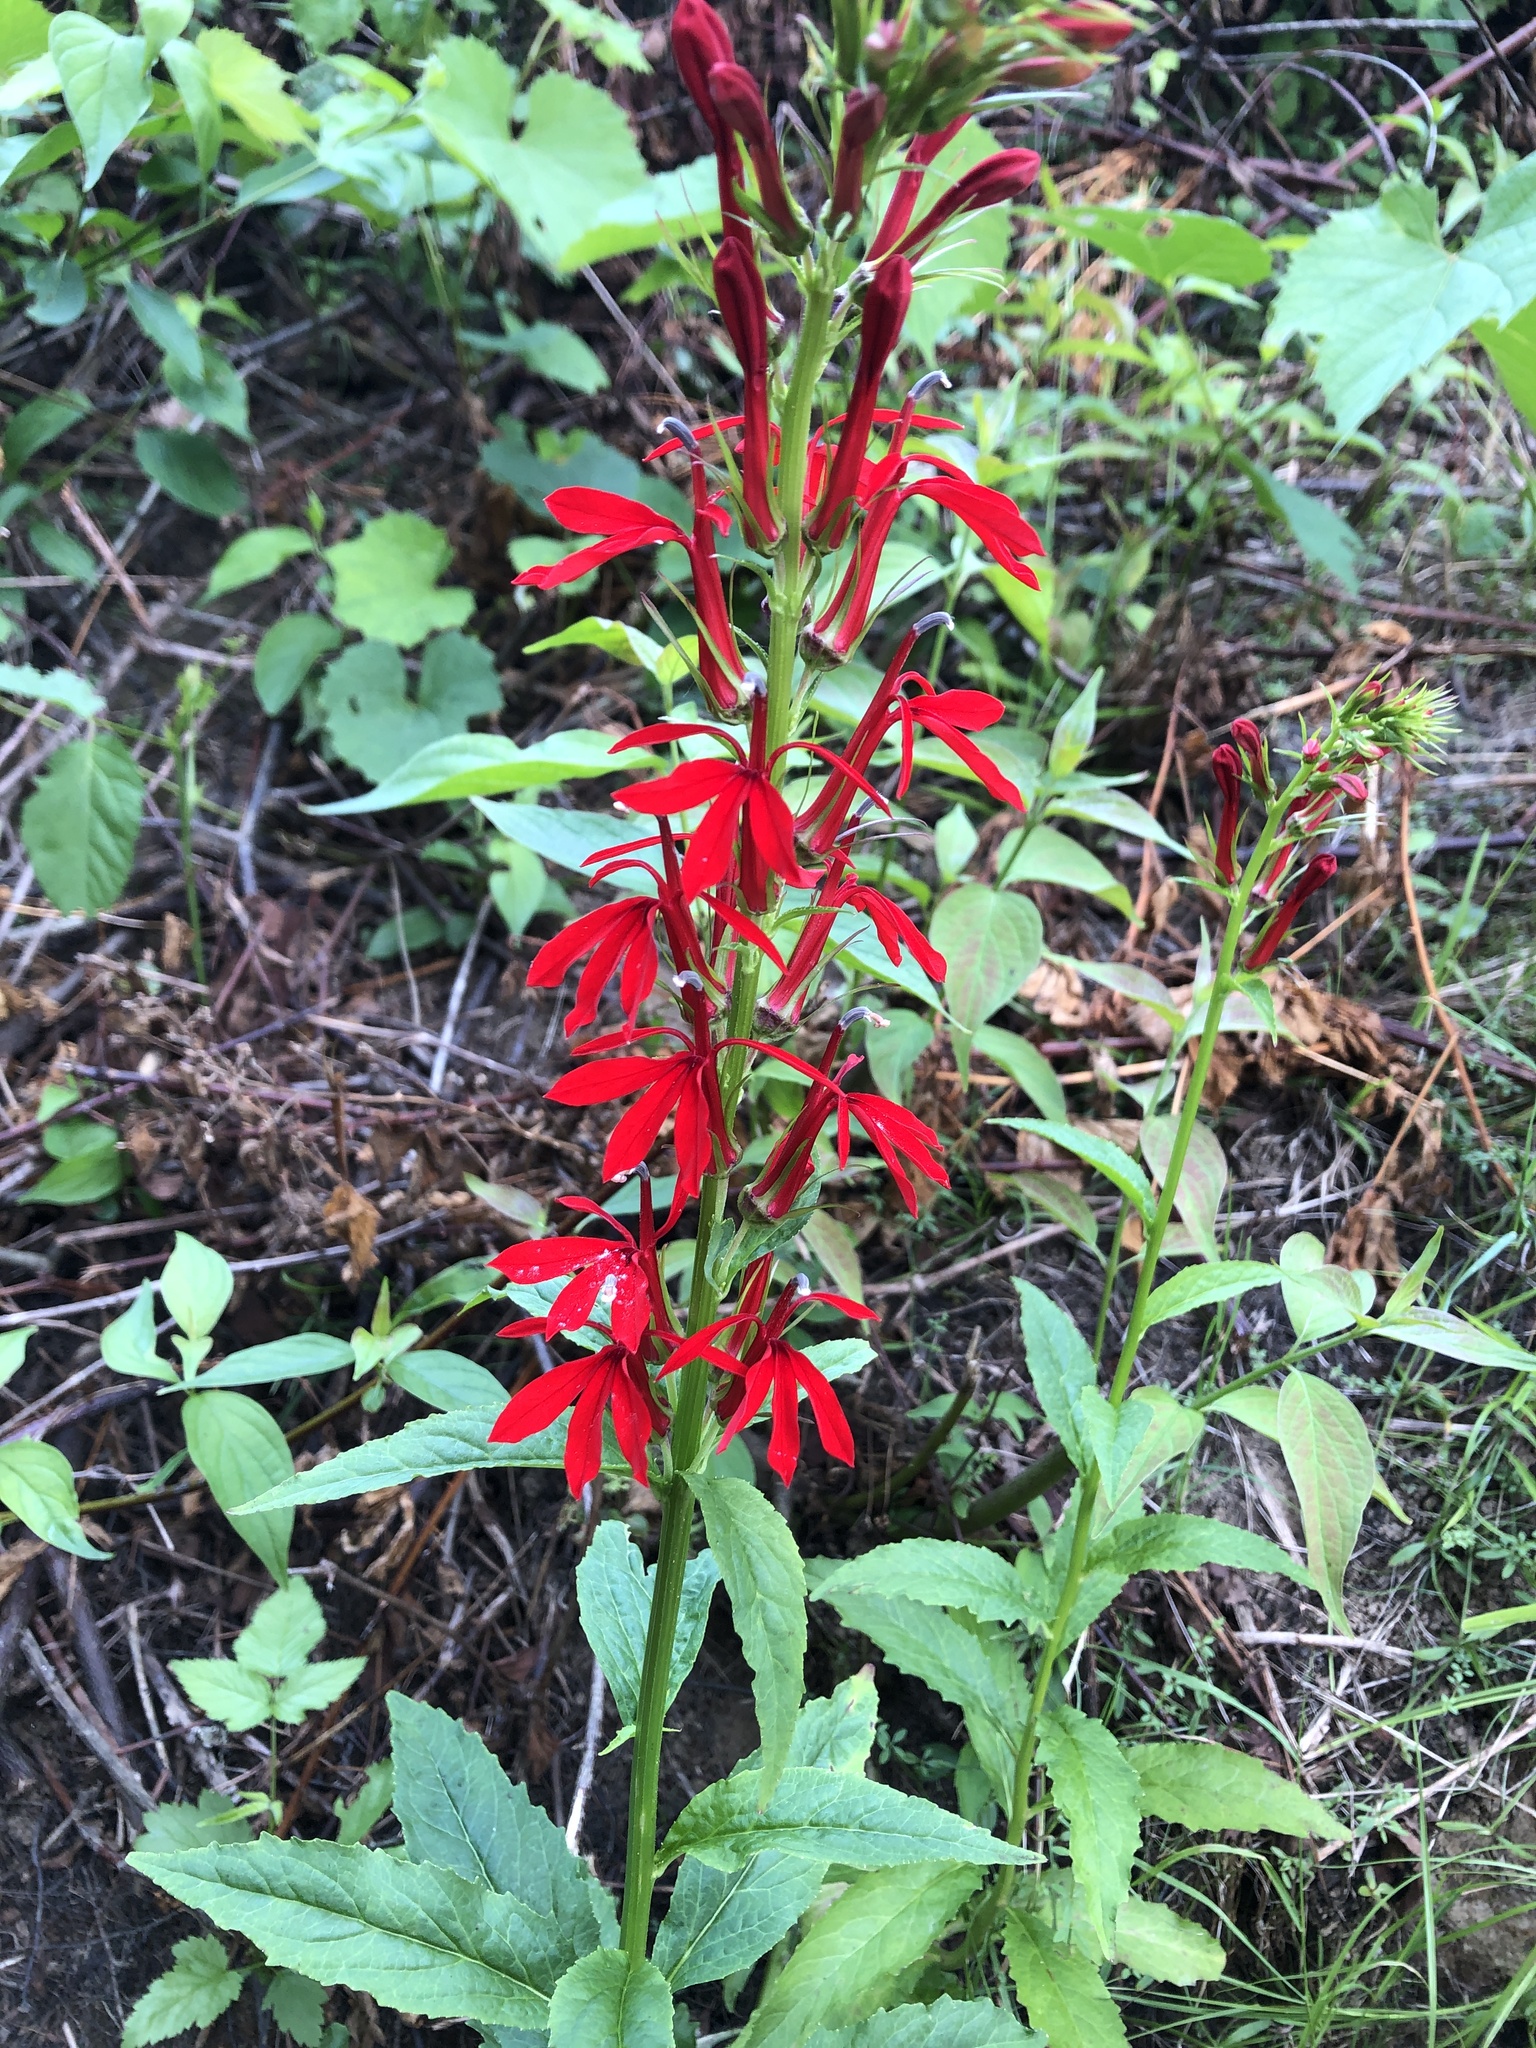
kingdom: Plantae
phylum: Tracheophyta
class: Magnoliopsida
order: Asterales
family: Campanulaceae
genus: Lobelia
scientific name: Lobelia cardinalis
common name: Cardinal flower
